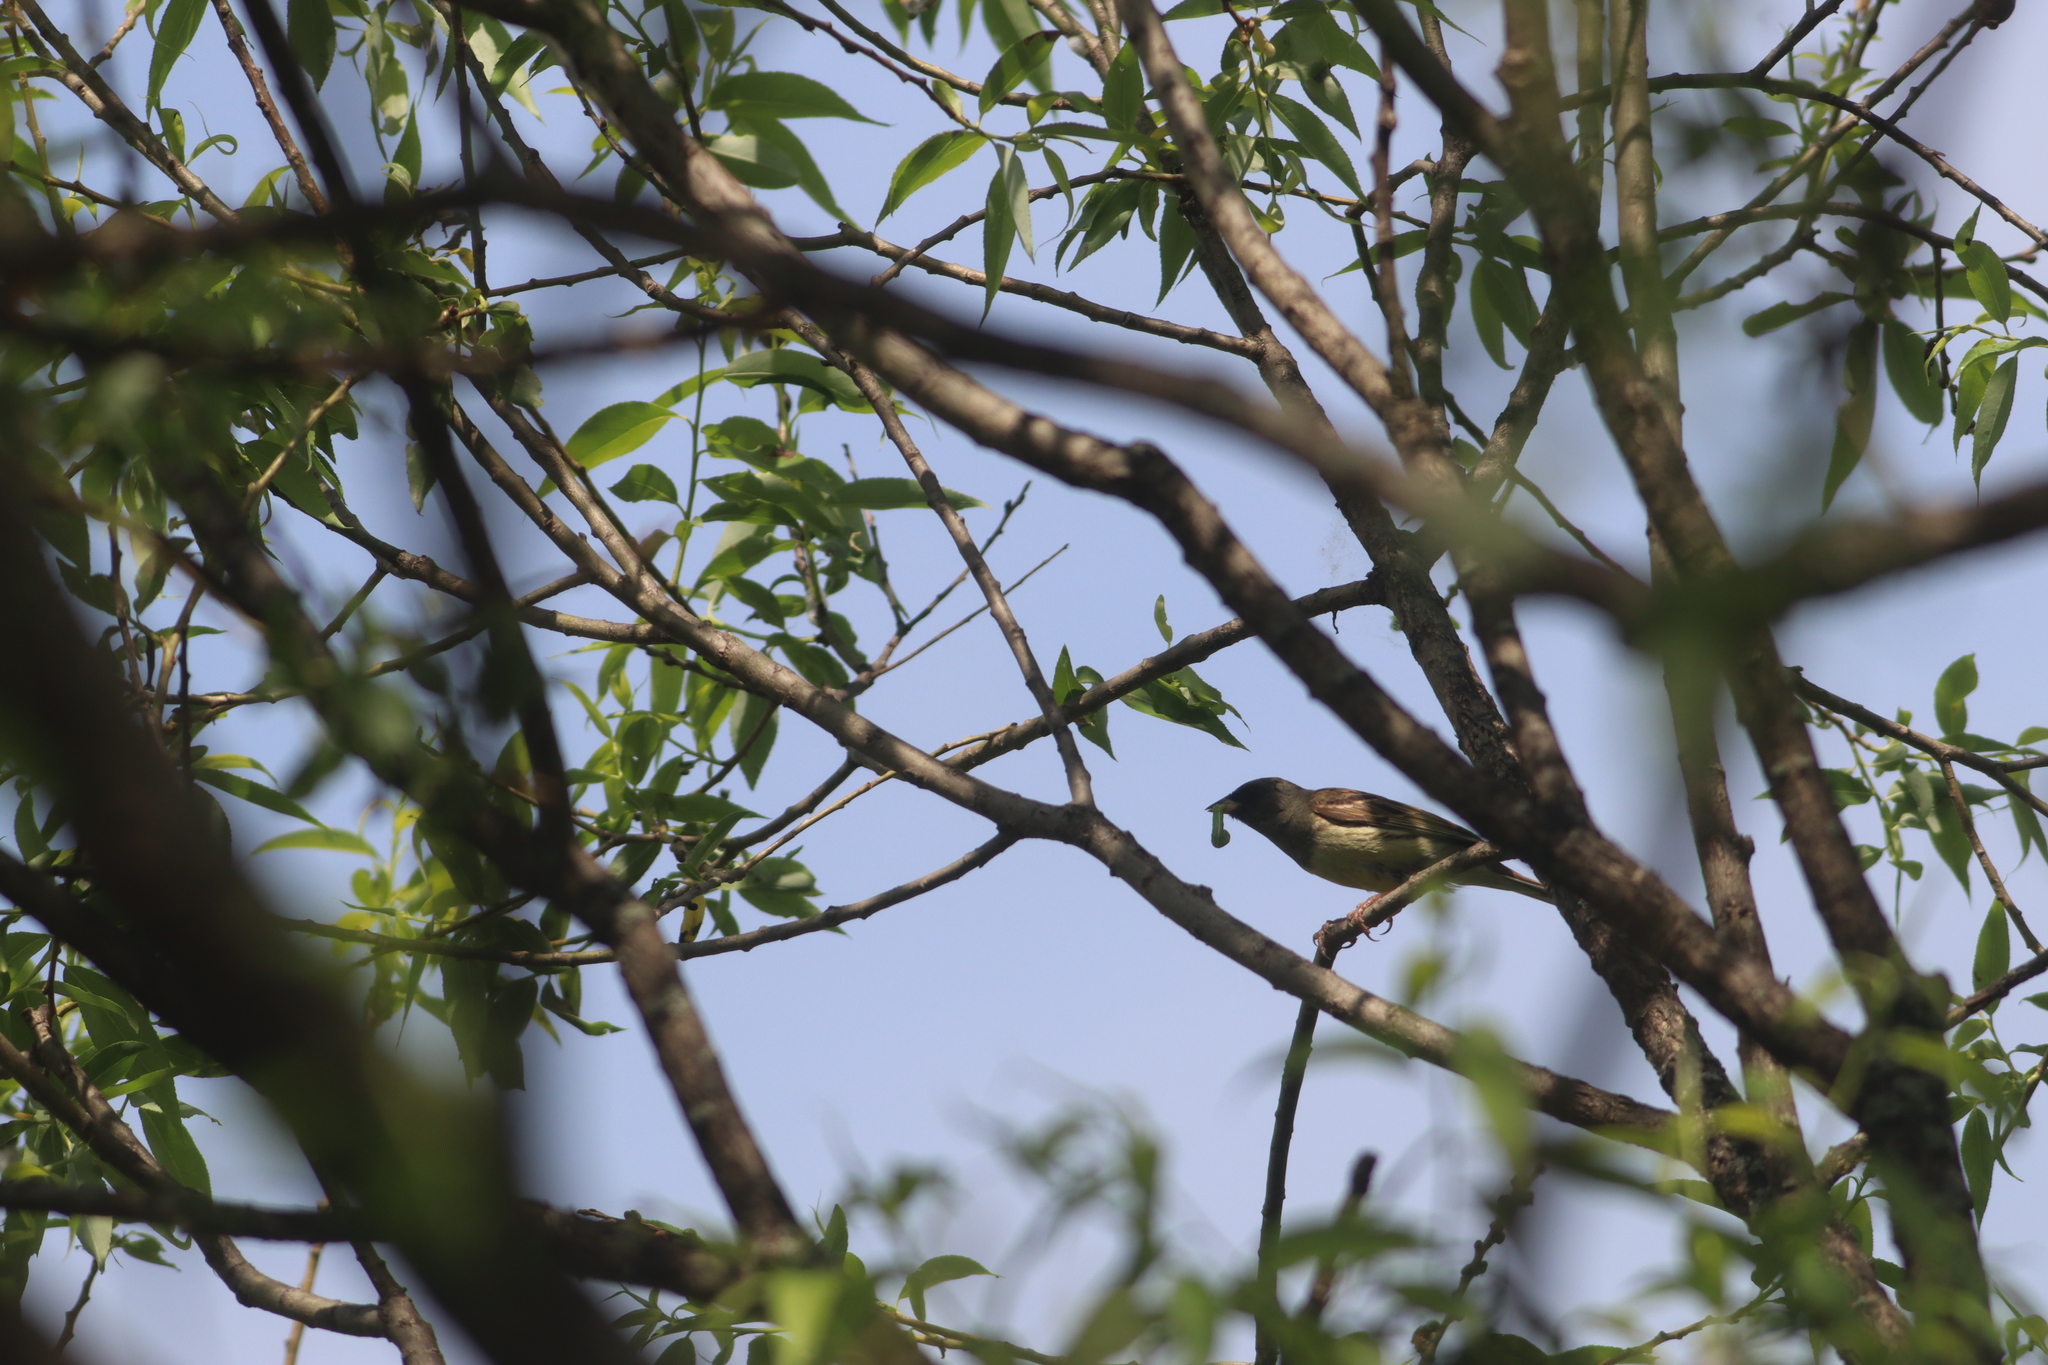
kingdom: Animalia
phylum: Chordata
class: Aves
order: Passeriformes
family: Emberizidae
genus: Emberiza
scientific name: Emberiza spodocephala
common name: Black-faced bunting
